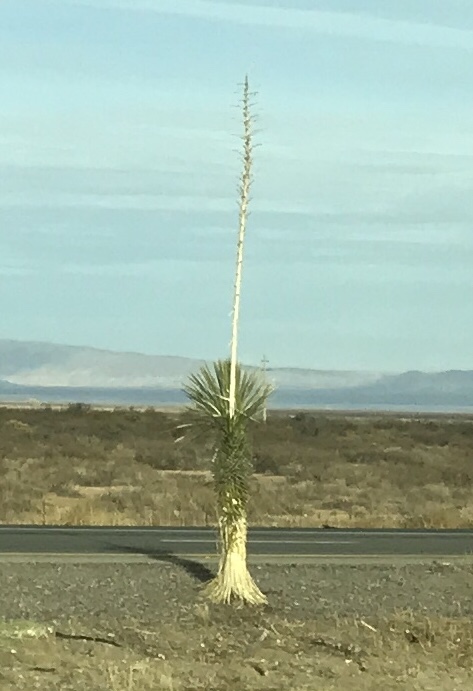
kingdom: Plantae
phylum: Tracheophyta
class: Liliopsida
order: Asparagales
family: Asparagaceae
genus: Yucca
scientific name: Yucca elata
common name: Palmella
